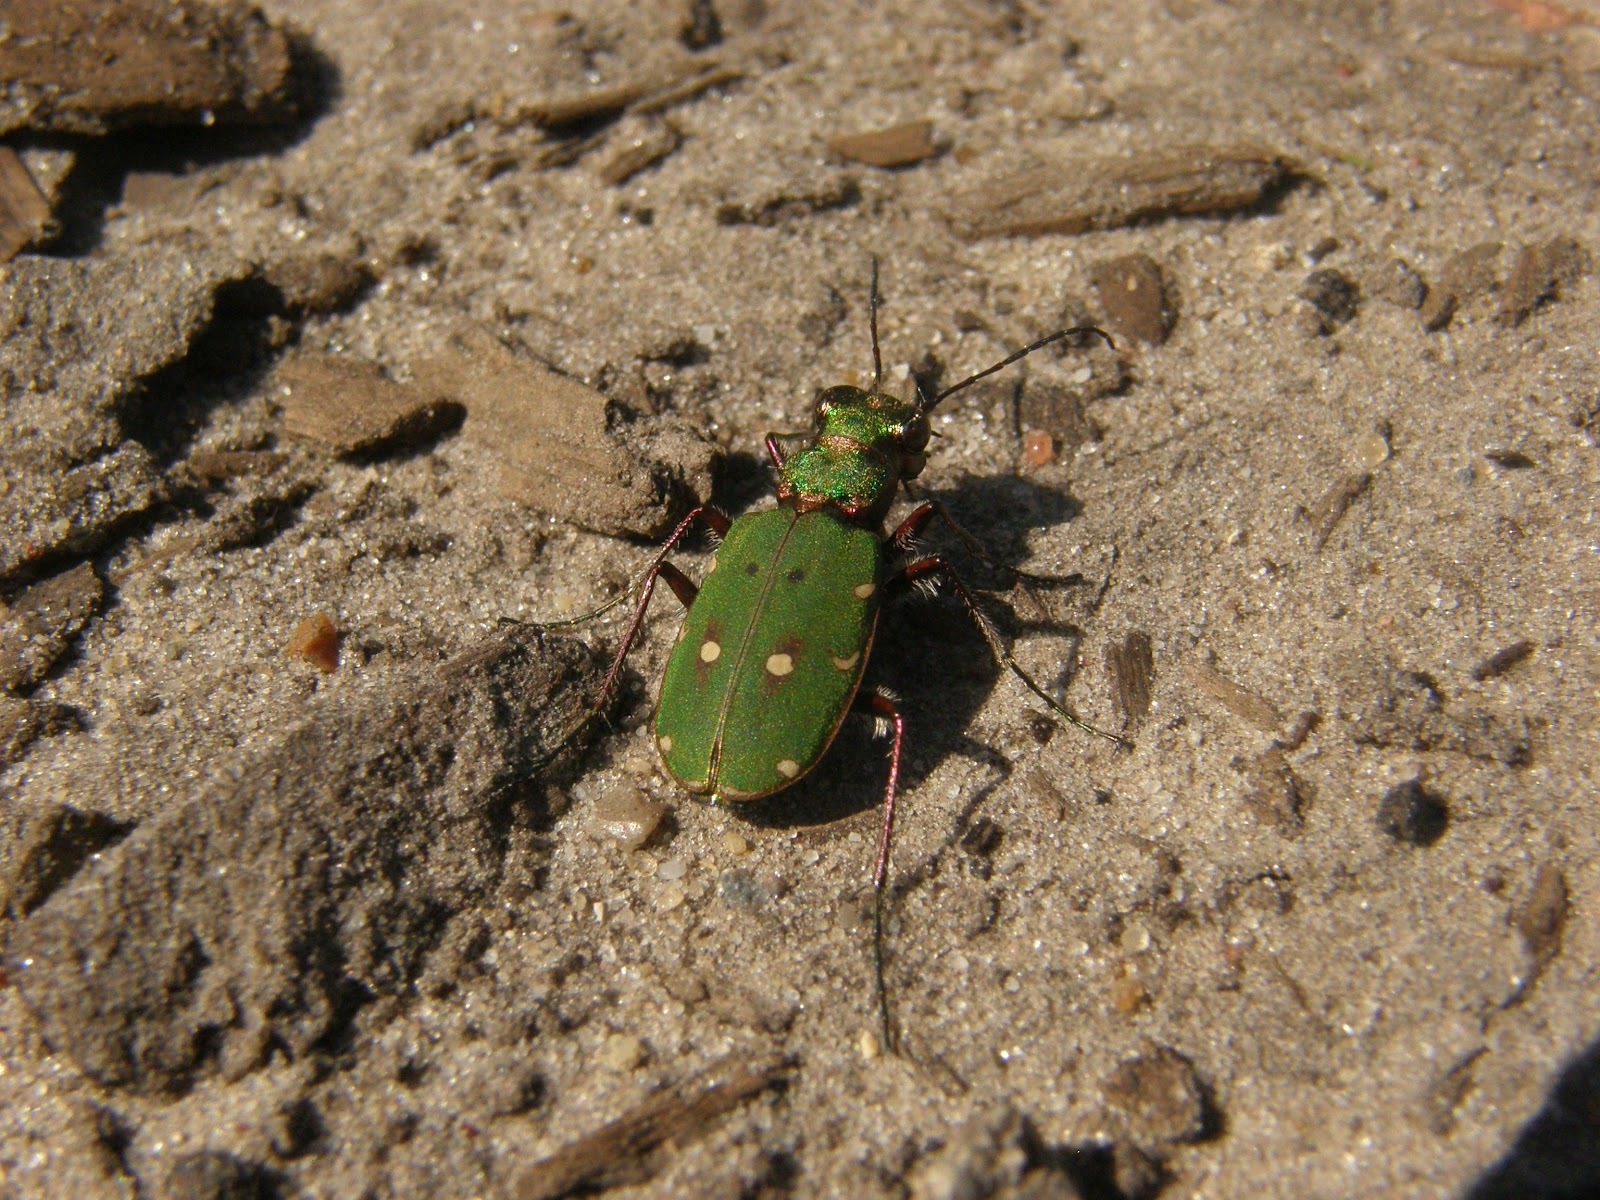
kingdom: Animalia
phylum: Arthropoda
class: Insecta
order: Coleoptera
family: Carabidae
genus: Cicindela
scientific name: Cicindela campestris
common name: Common tiger beetle
